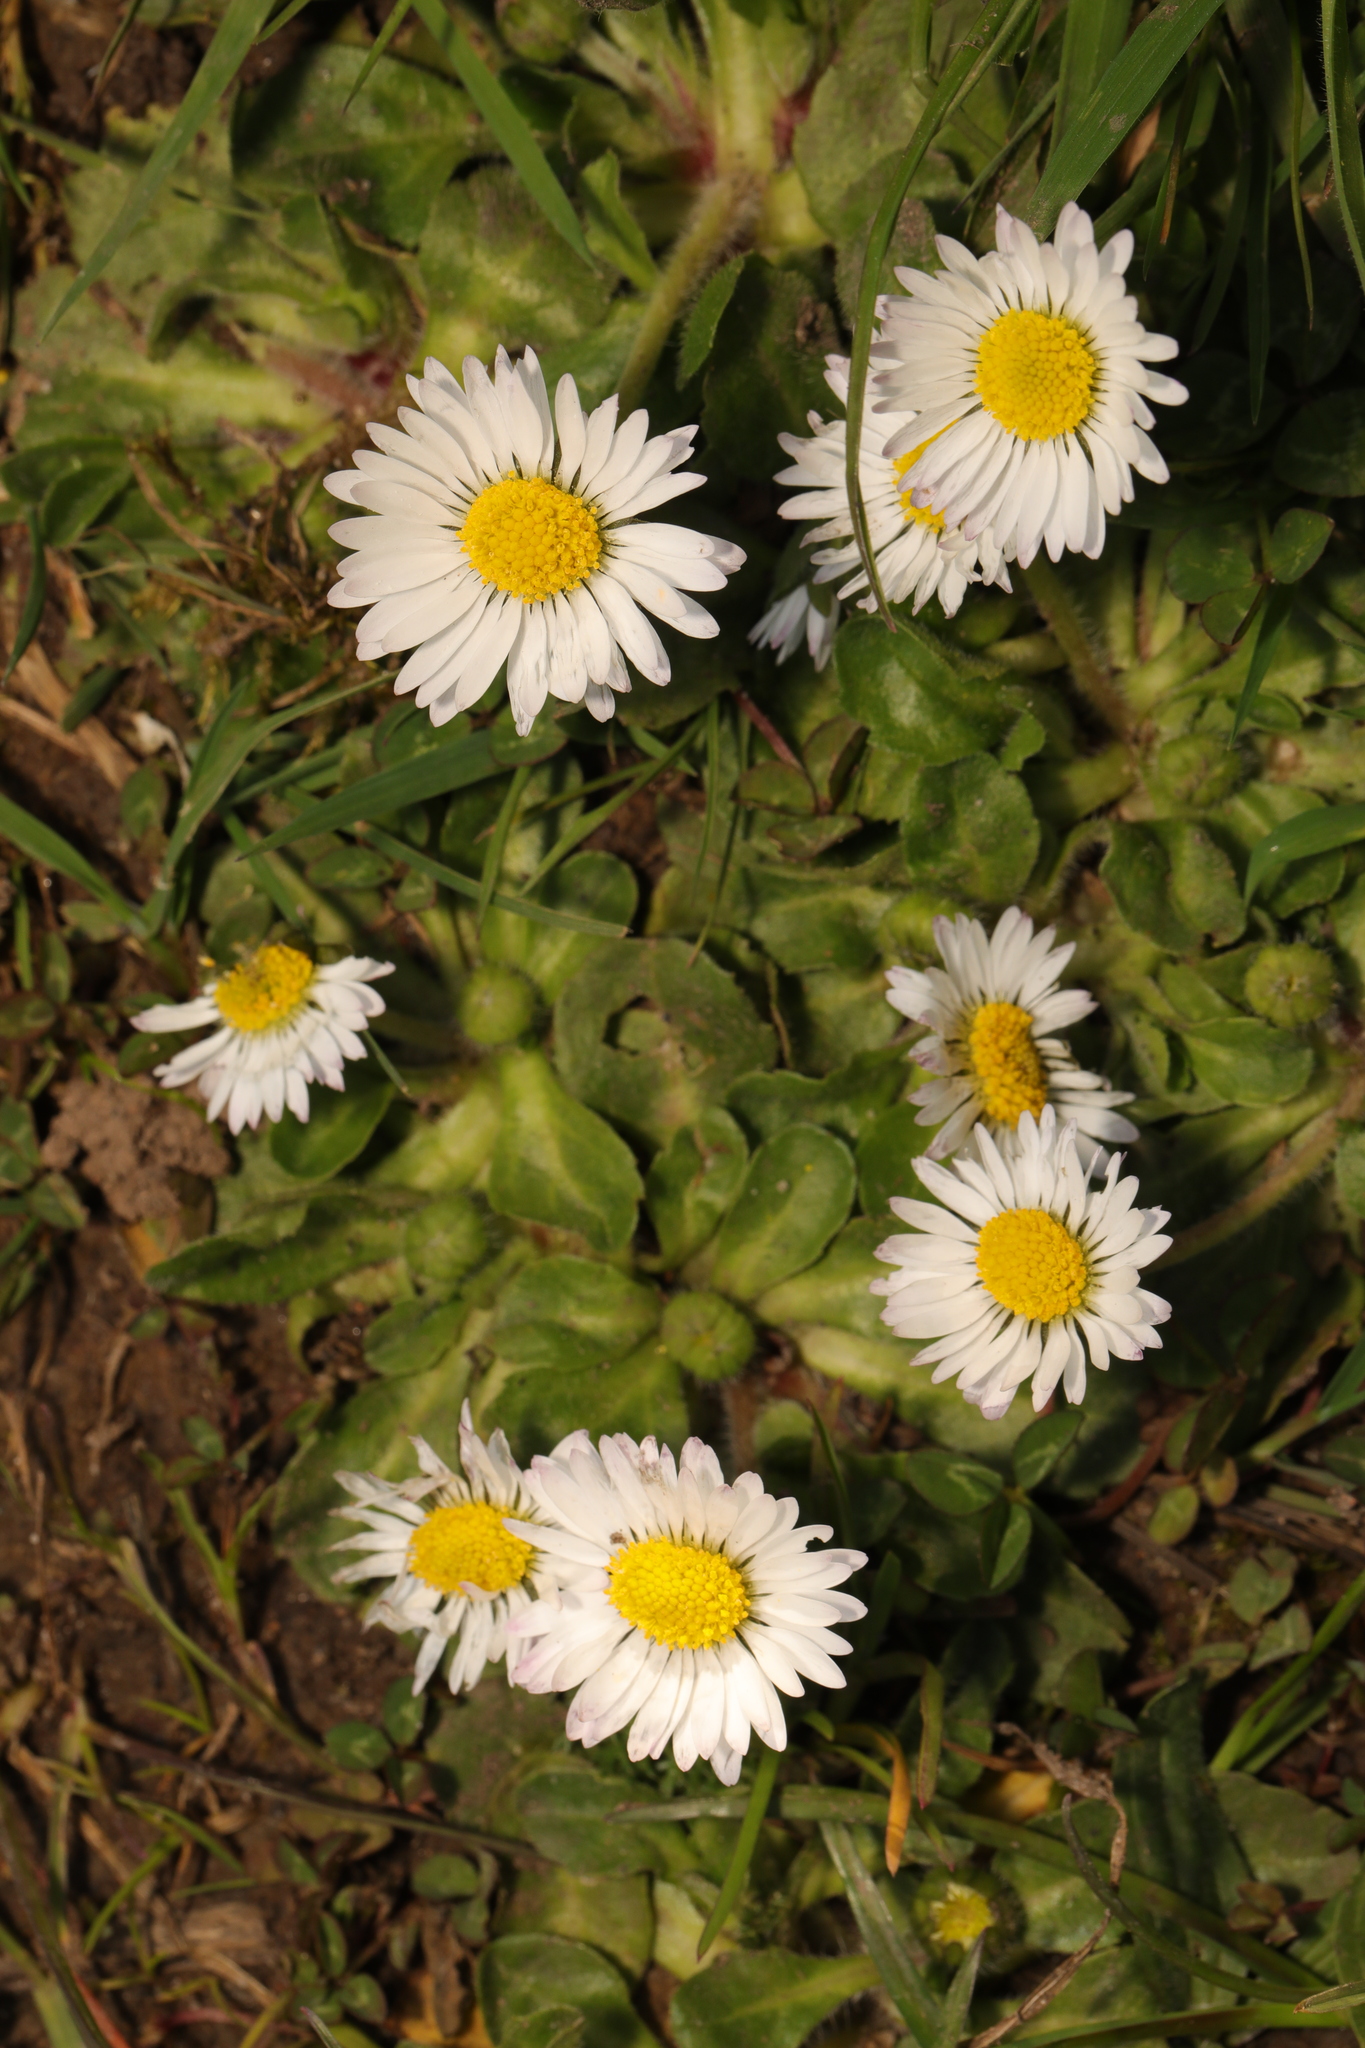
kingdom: Plantae
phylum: Tracheophyta
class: Magnoliopsida
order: Asterales
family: Asteraceae
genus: Bellis
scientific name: Bellis perennis
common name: Lawndaisy
